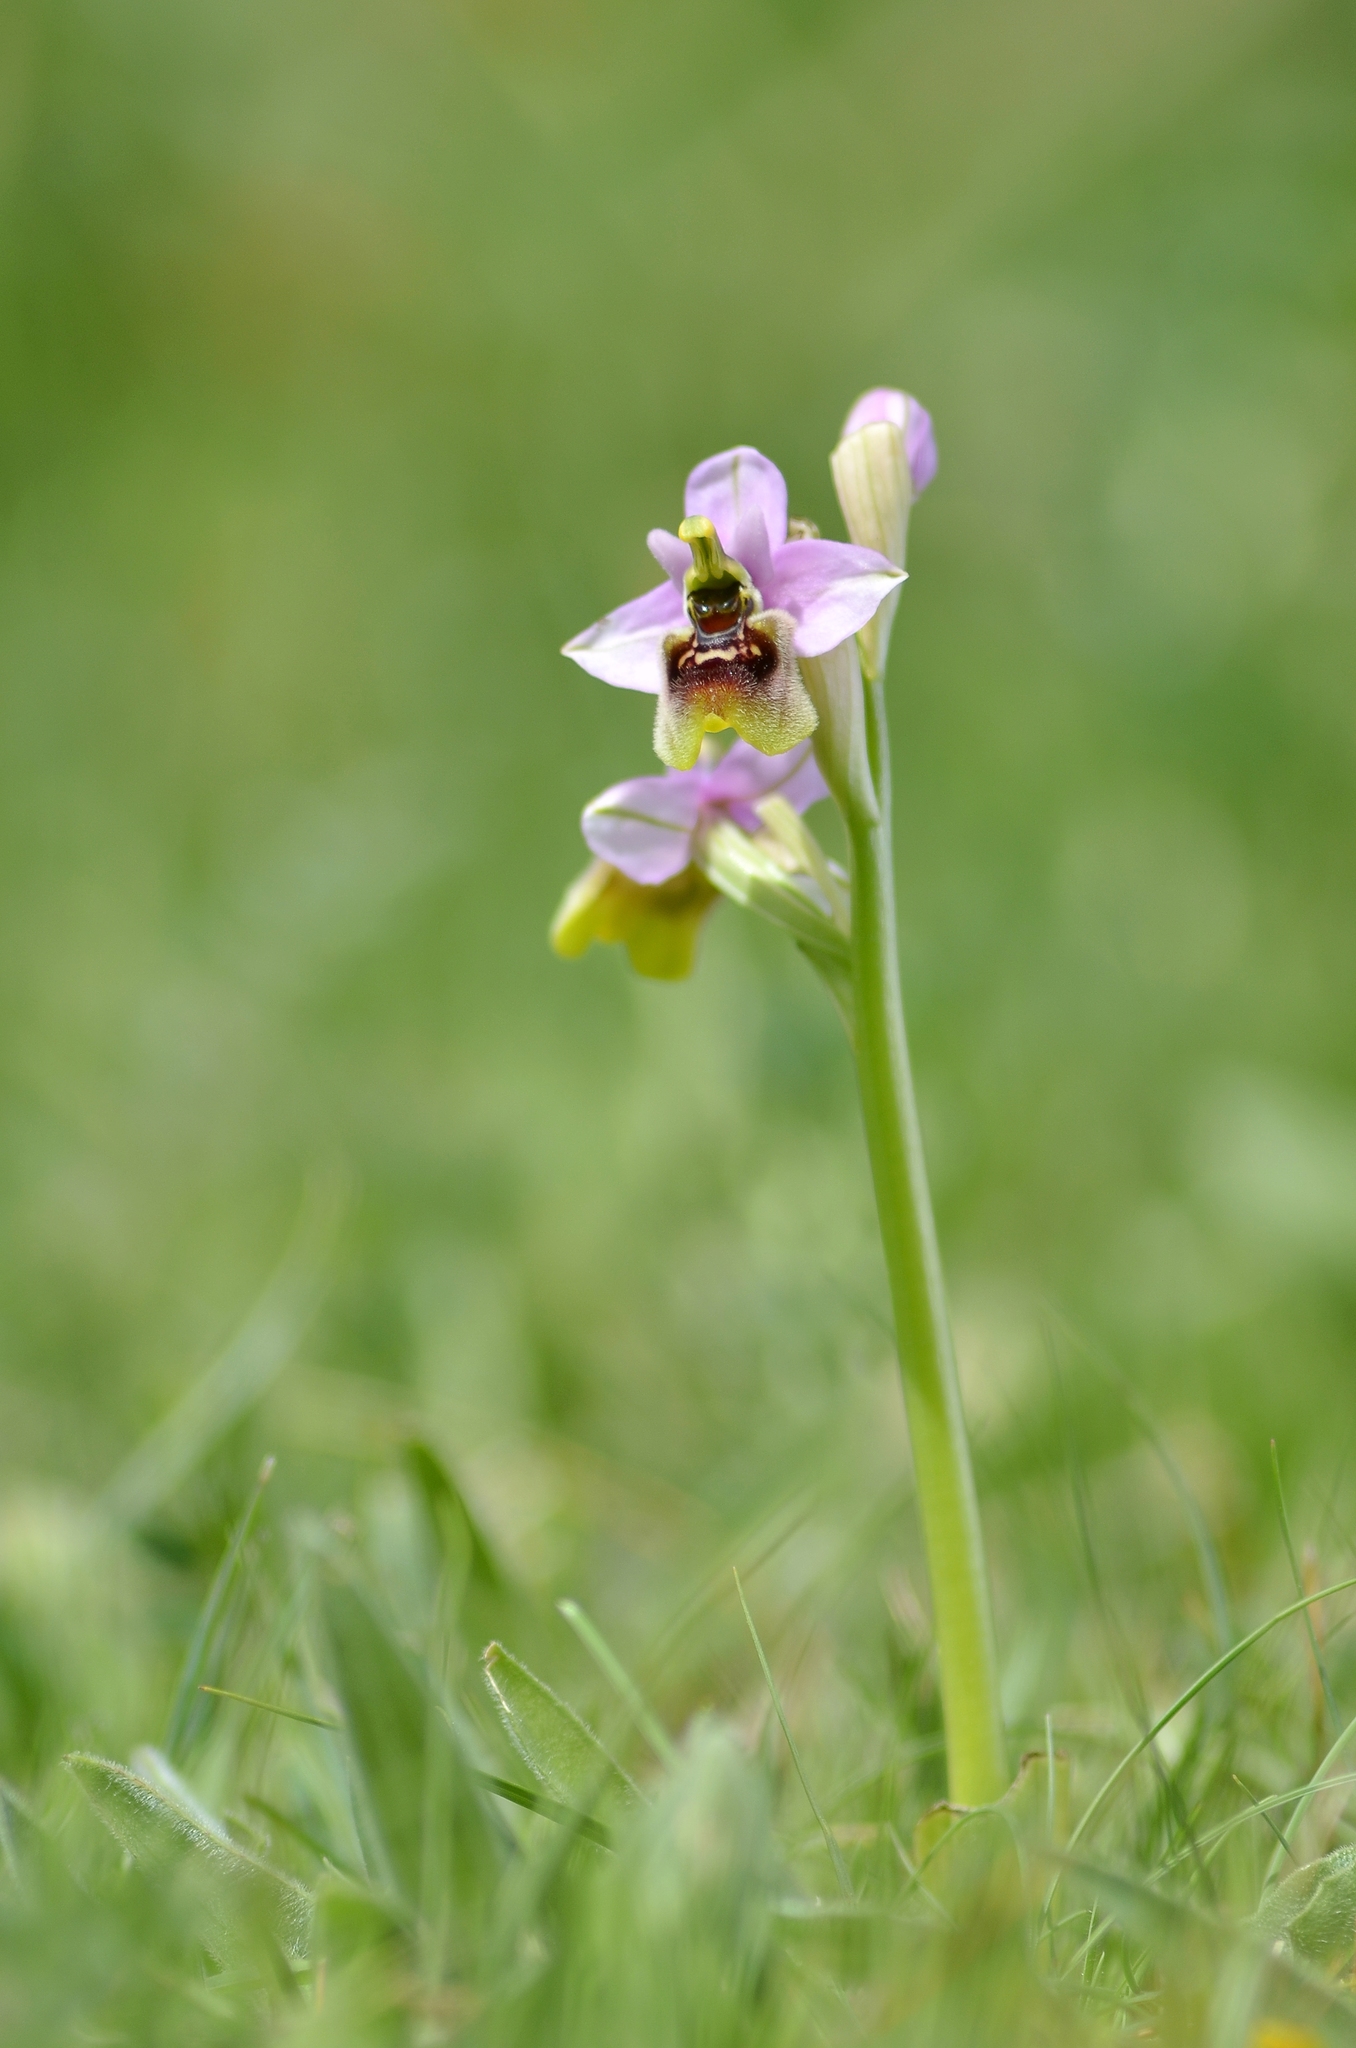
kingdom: Plantae
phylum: Tracheophyta
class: Liliopsida
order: Asparagales
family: Orchidaceae
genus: Ophrys
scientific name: Ophrys tenthredinifera
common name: Sawfly orchid
